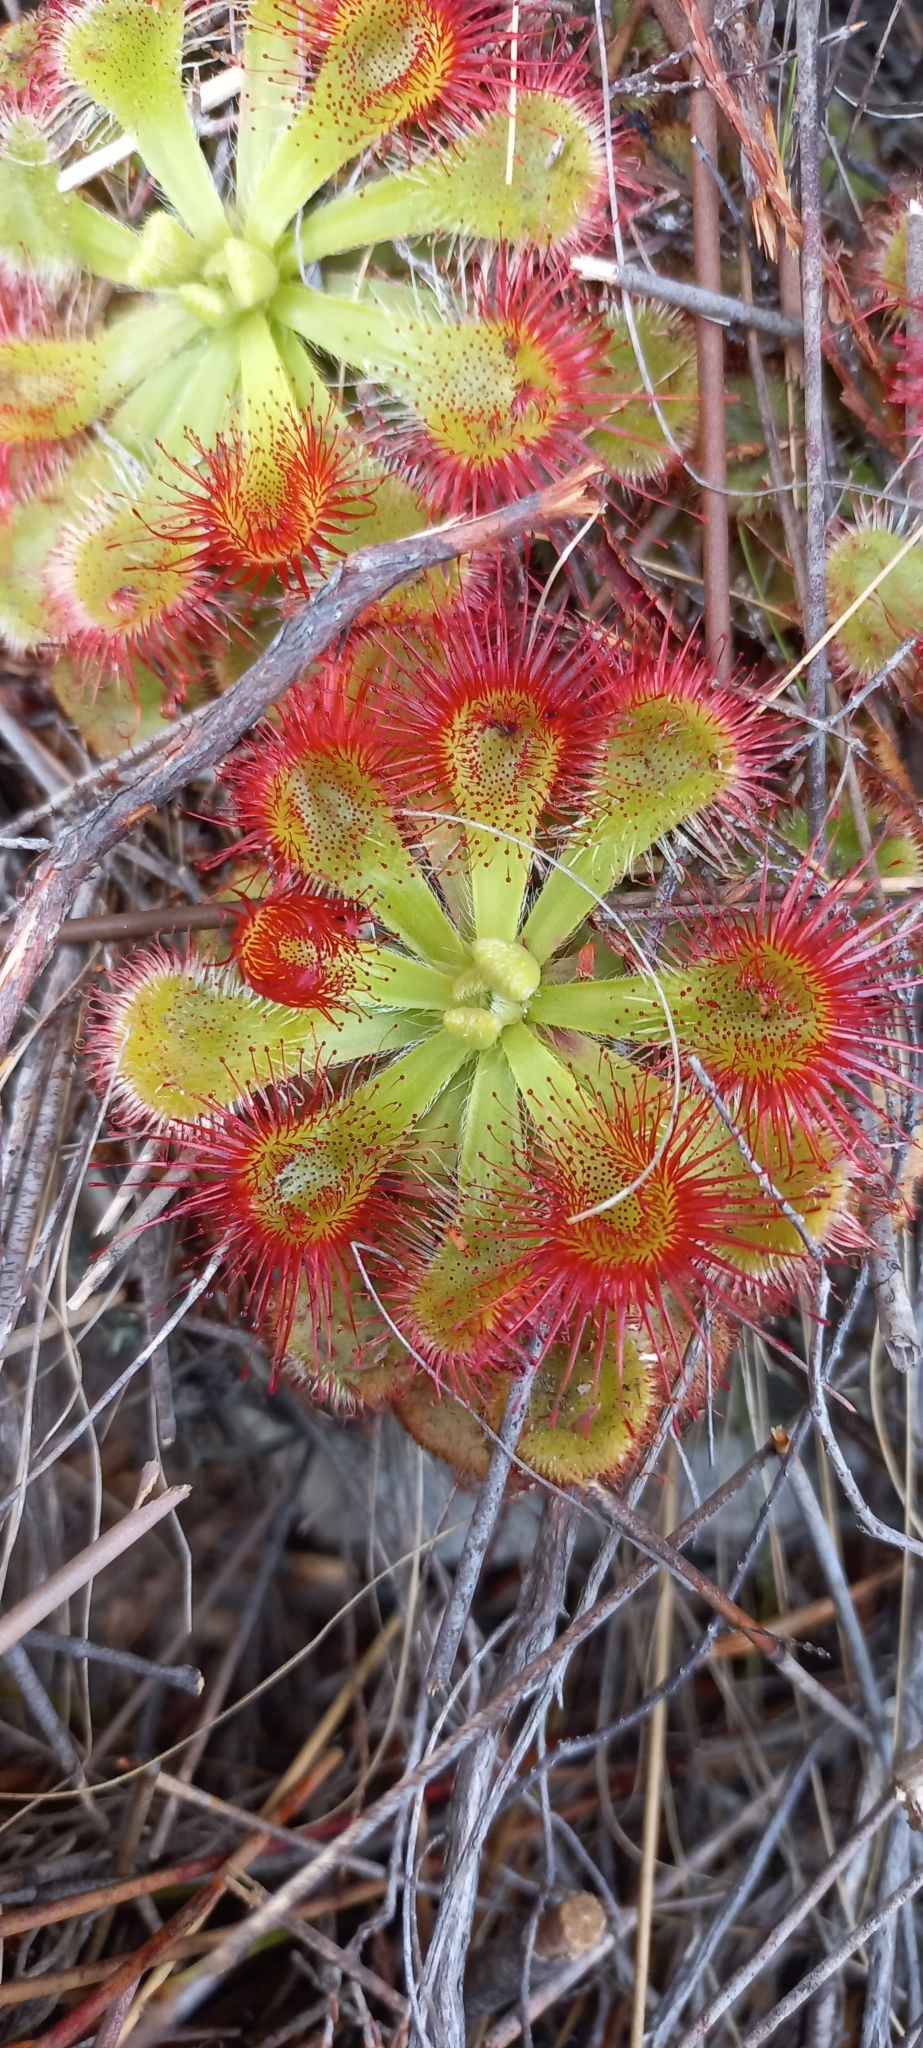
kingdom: Plantae
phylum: Tracheophyta
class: Magnoliopsida
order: Caryophyllales
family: Droseraceae
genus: Drosera
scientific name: Drosera xerophila
